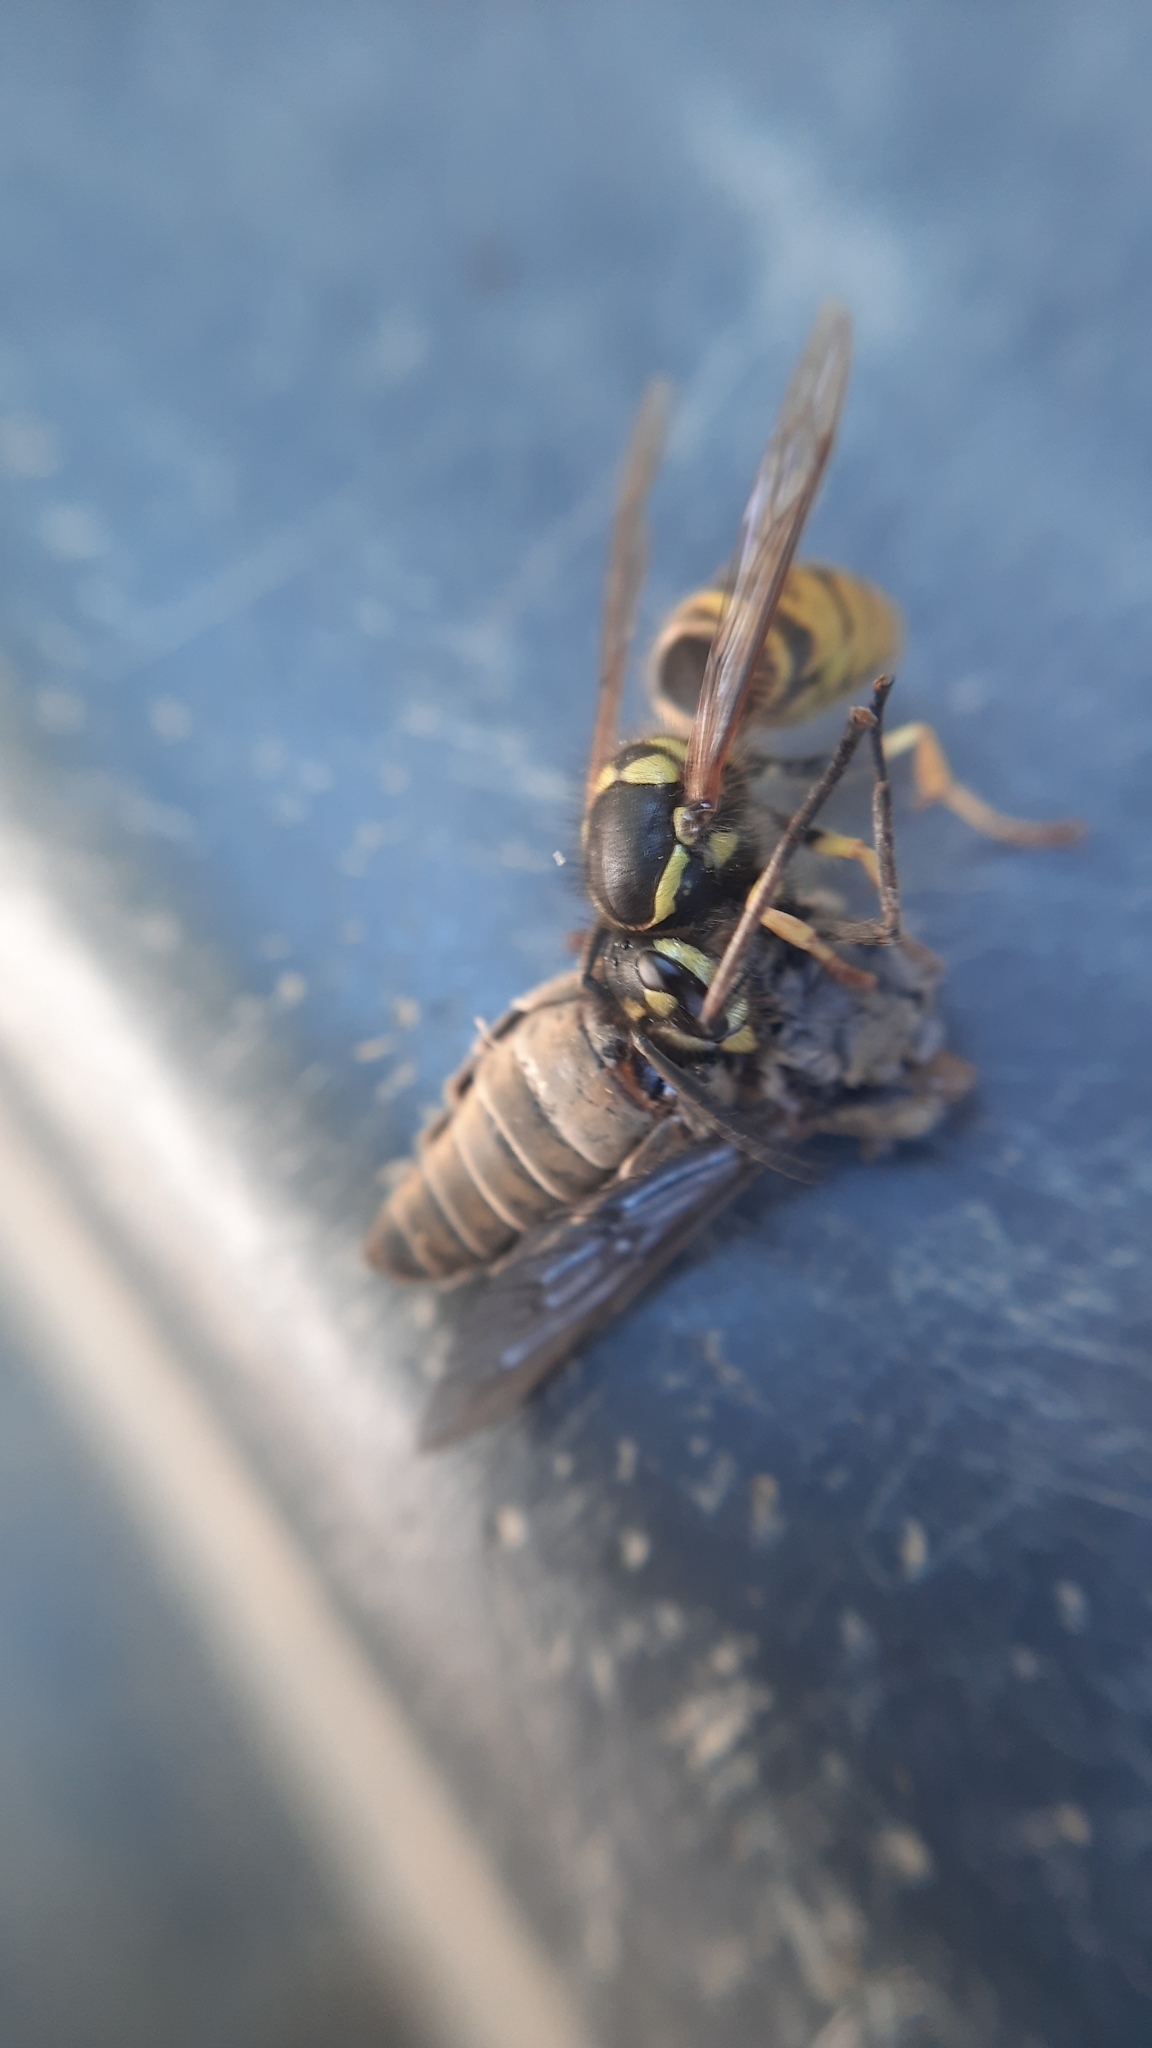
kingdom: Animalia
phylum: Arthropoda
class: Insecta
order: Hymenoptera
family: Vespidae
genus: Vespula
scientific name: Vespula vulgaris
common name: Common wasp
